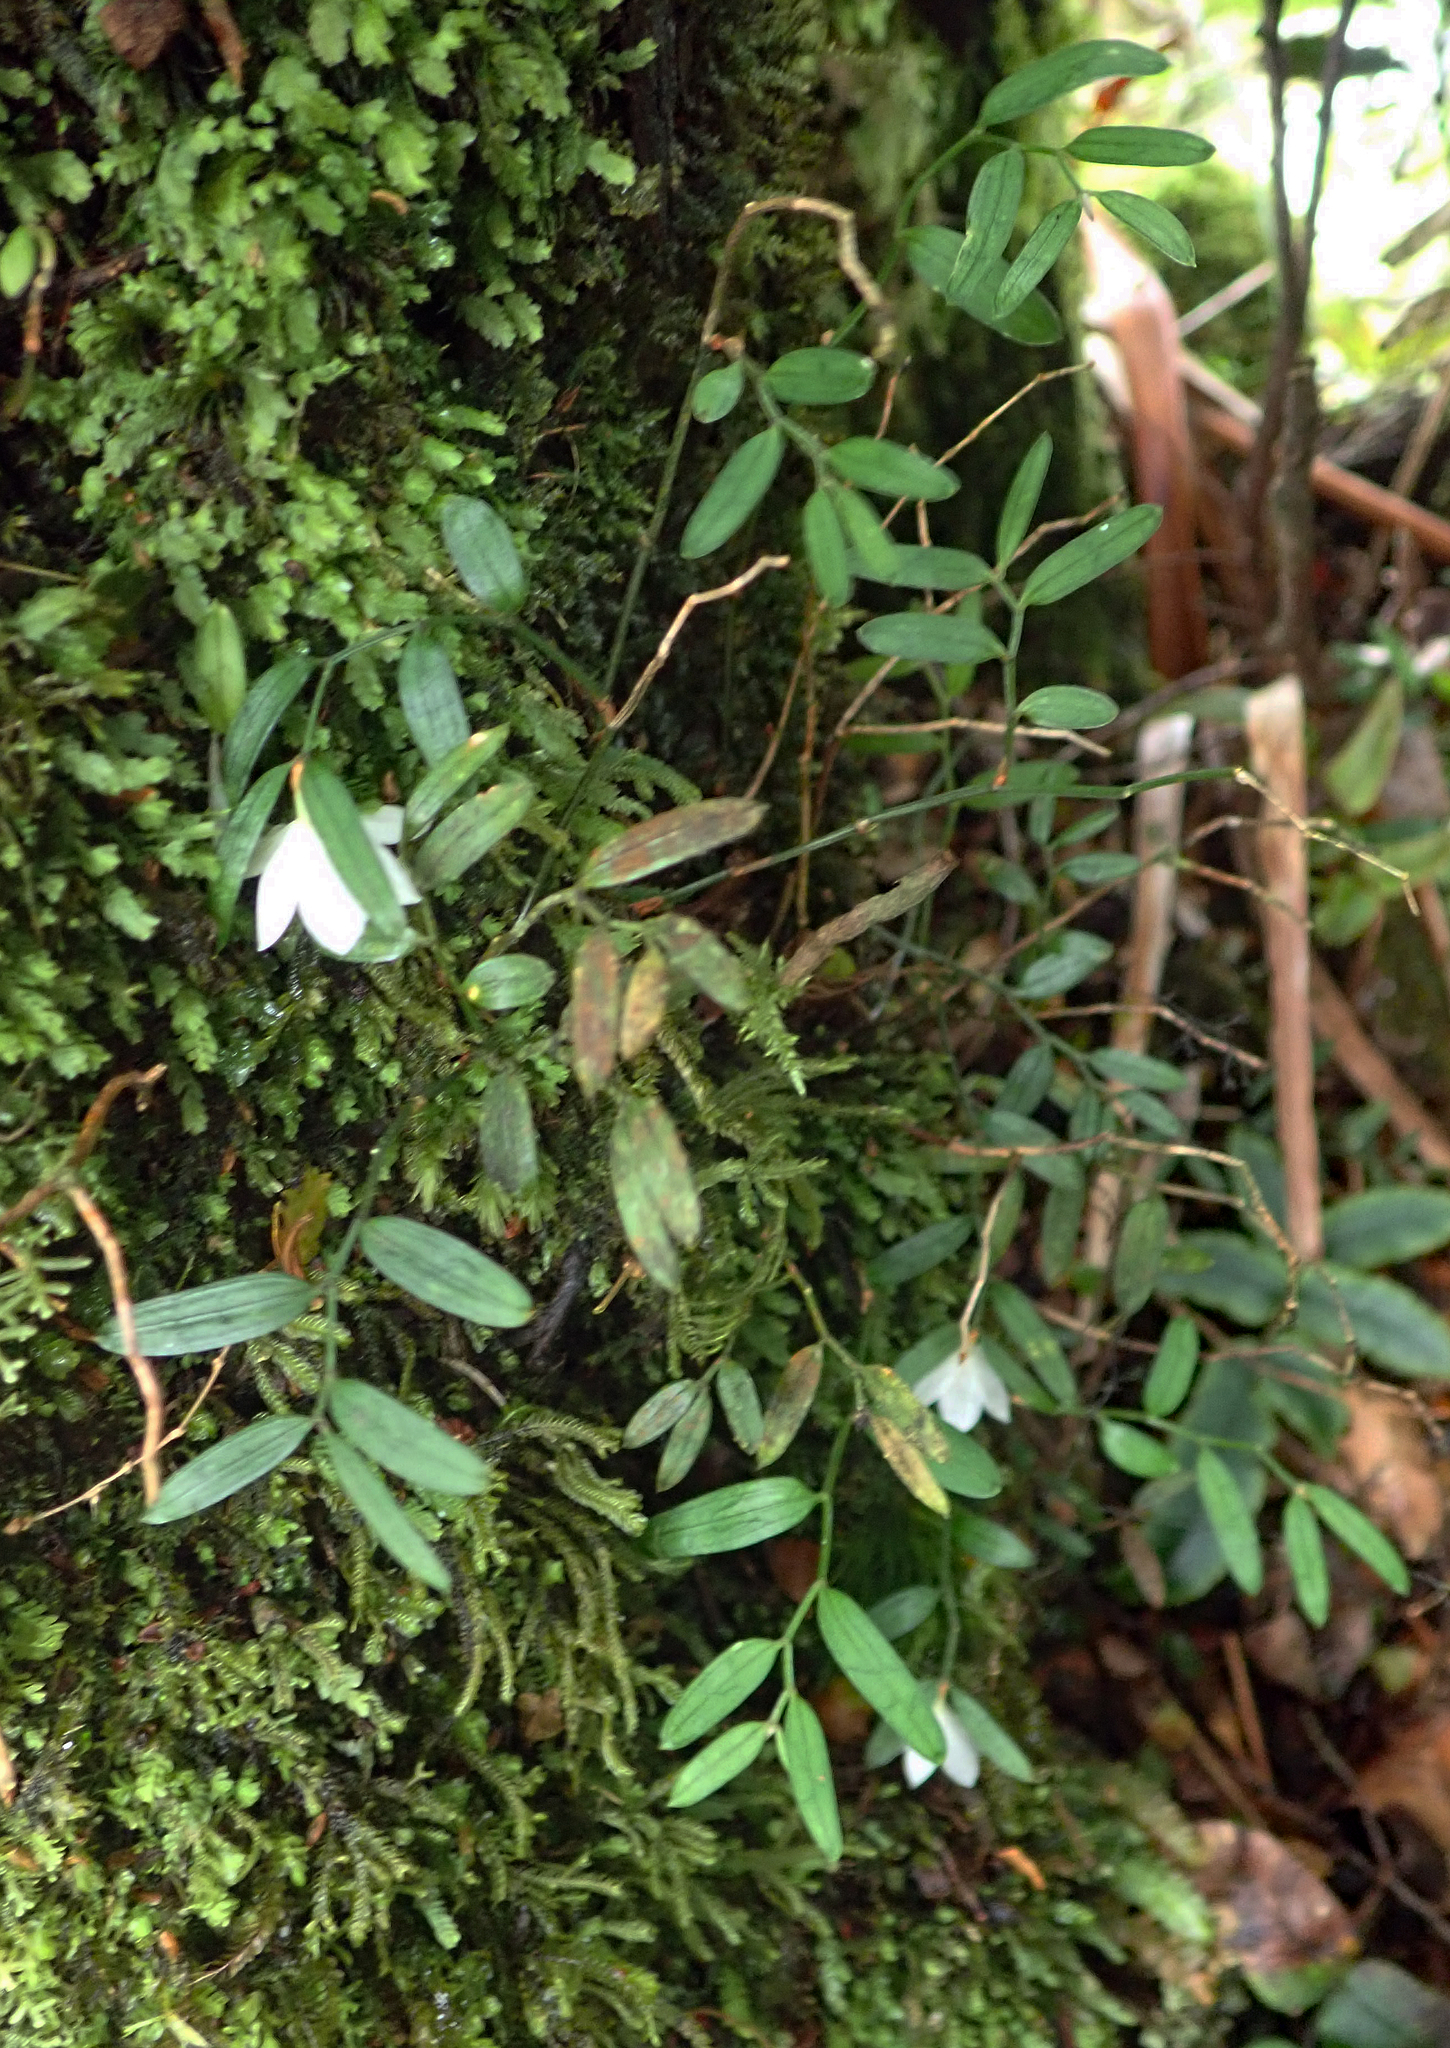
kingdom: Plantae
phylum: Tracheophyta
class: Liliopsida
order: Liliales
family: Alstroemeriaceae
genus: Luzuriaga
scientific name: Luzuriaga parviflora
